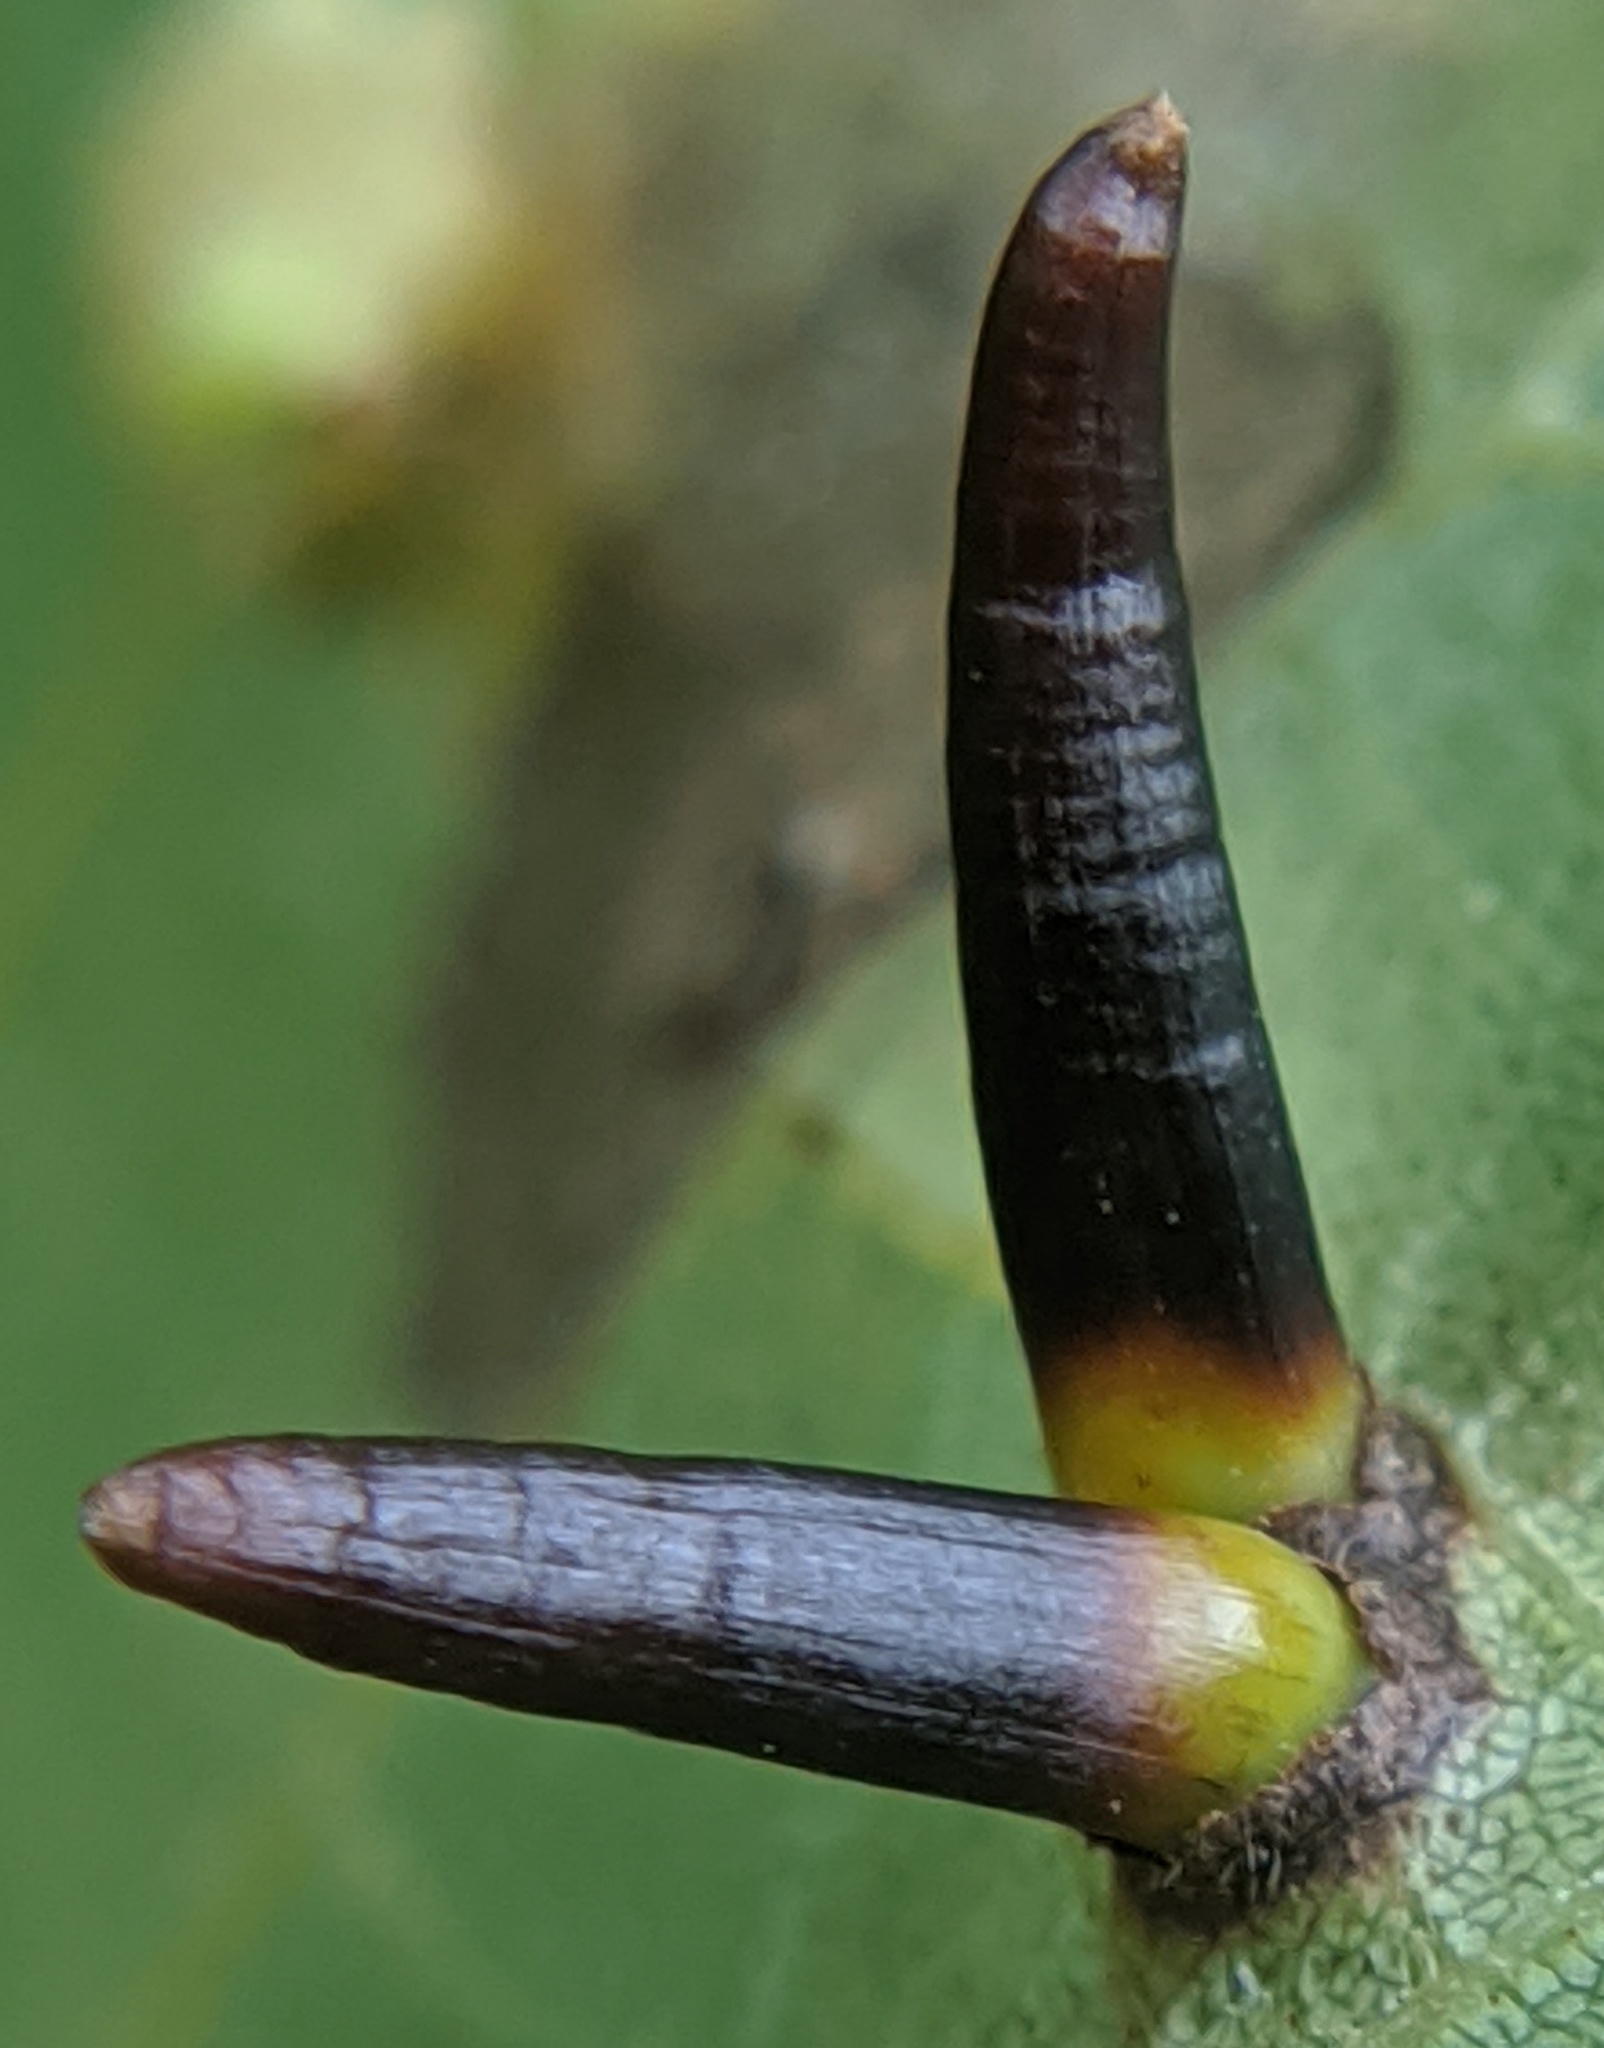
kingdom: Animalia
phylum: Arthropoda
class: Insecta
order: Diptera
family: Cecidomyiidae
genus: Caryomyia
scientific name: Caryomyia subulata
